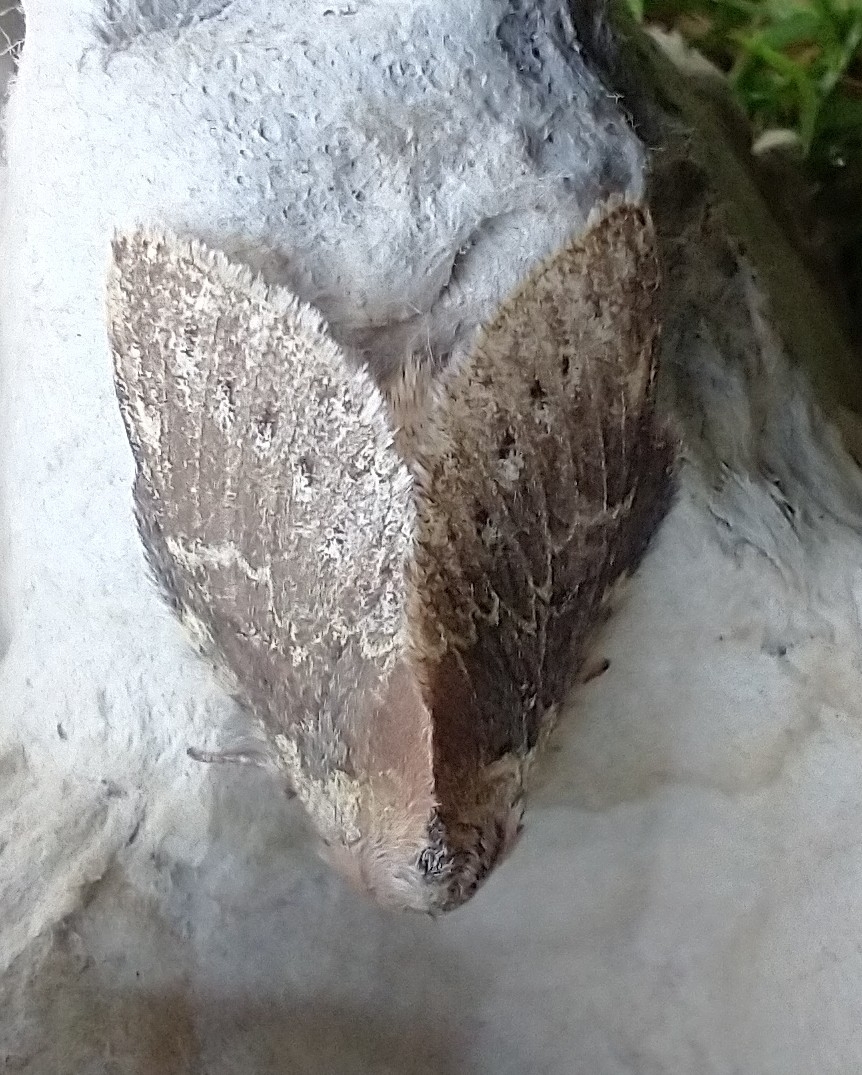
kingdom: Animalia
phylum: Arthropoda
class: Insecta
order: Lepidoptera
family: Notodontidae
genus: Stauropus
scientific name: Stauropus fagi
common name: Lobster moth
